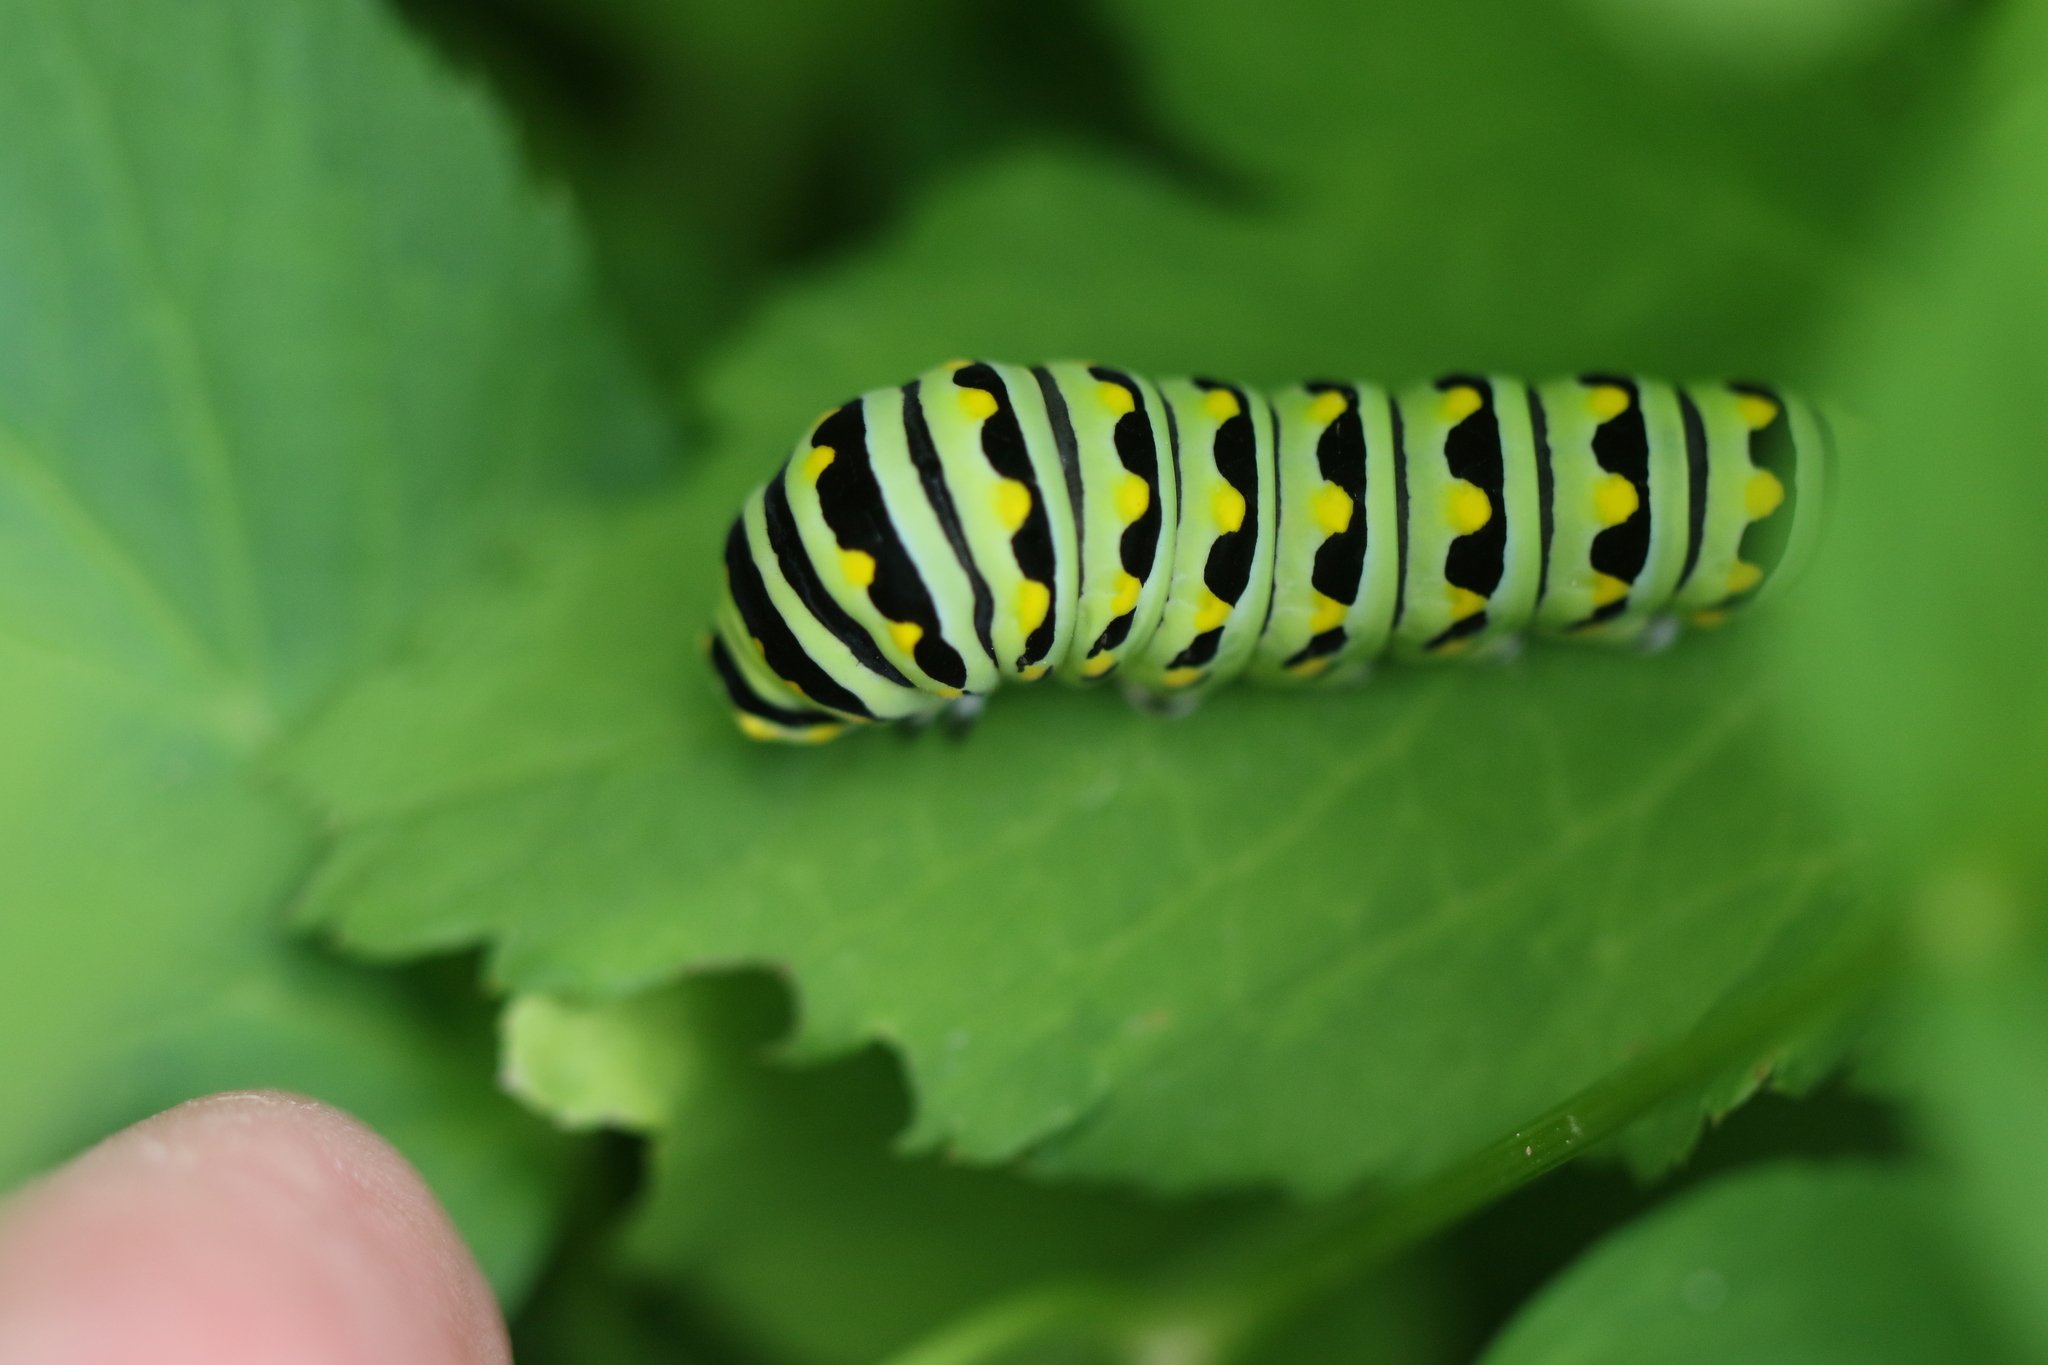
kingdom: Animalia
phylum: Arthropoda
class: Insecta
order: Lepidoptera
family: Papilionidae
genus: Papilio
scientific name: Papilio polyxenes
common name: Black swallowtail
